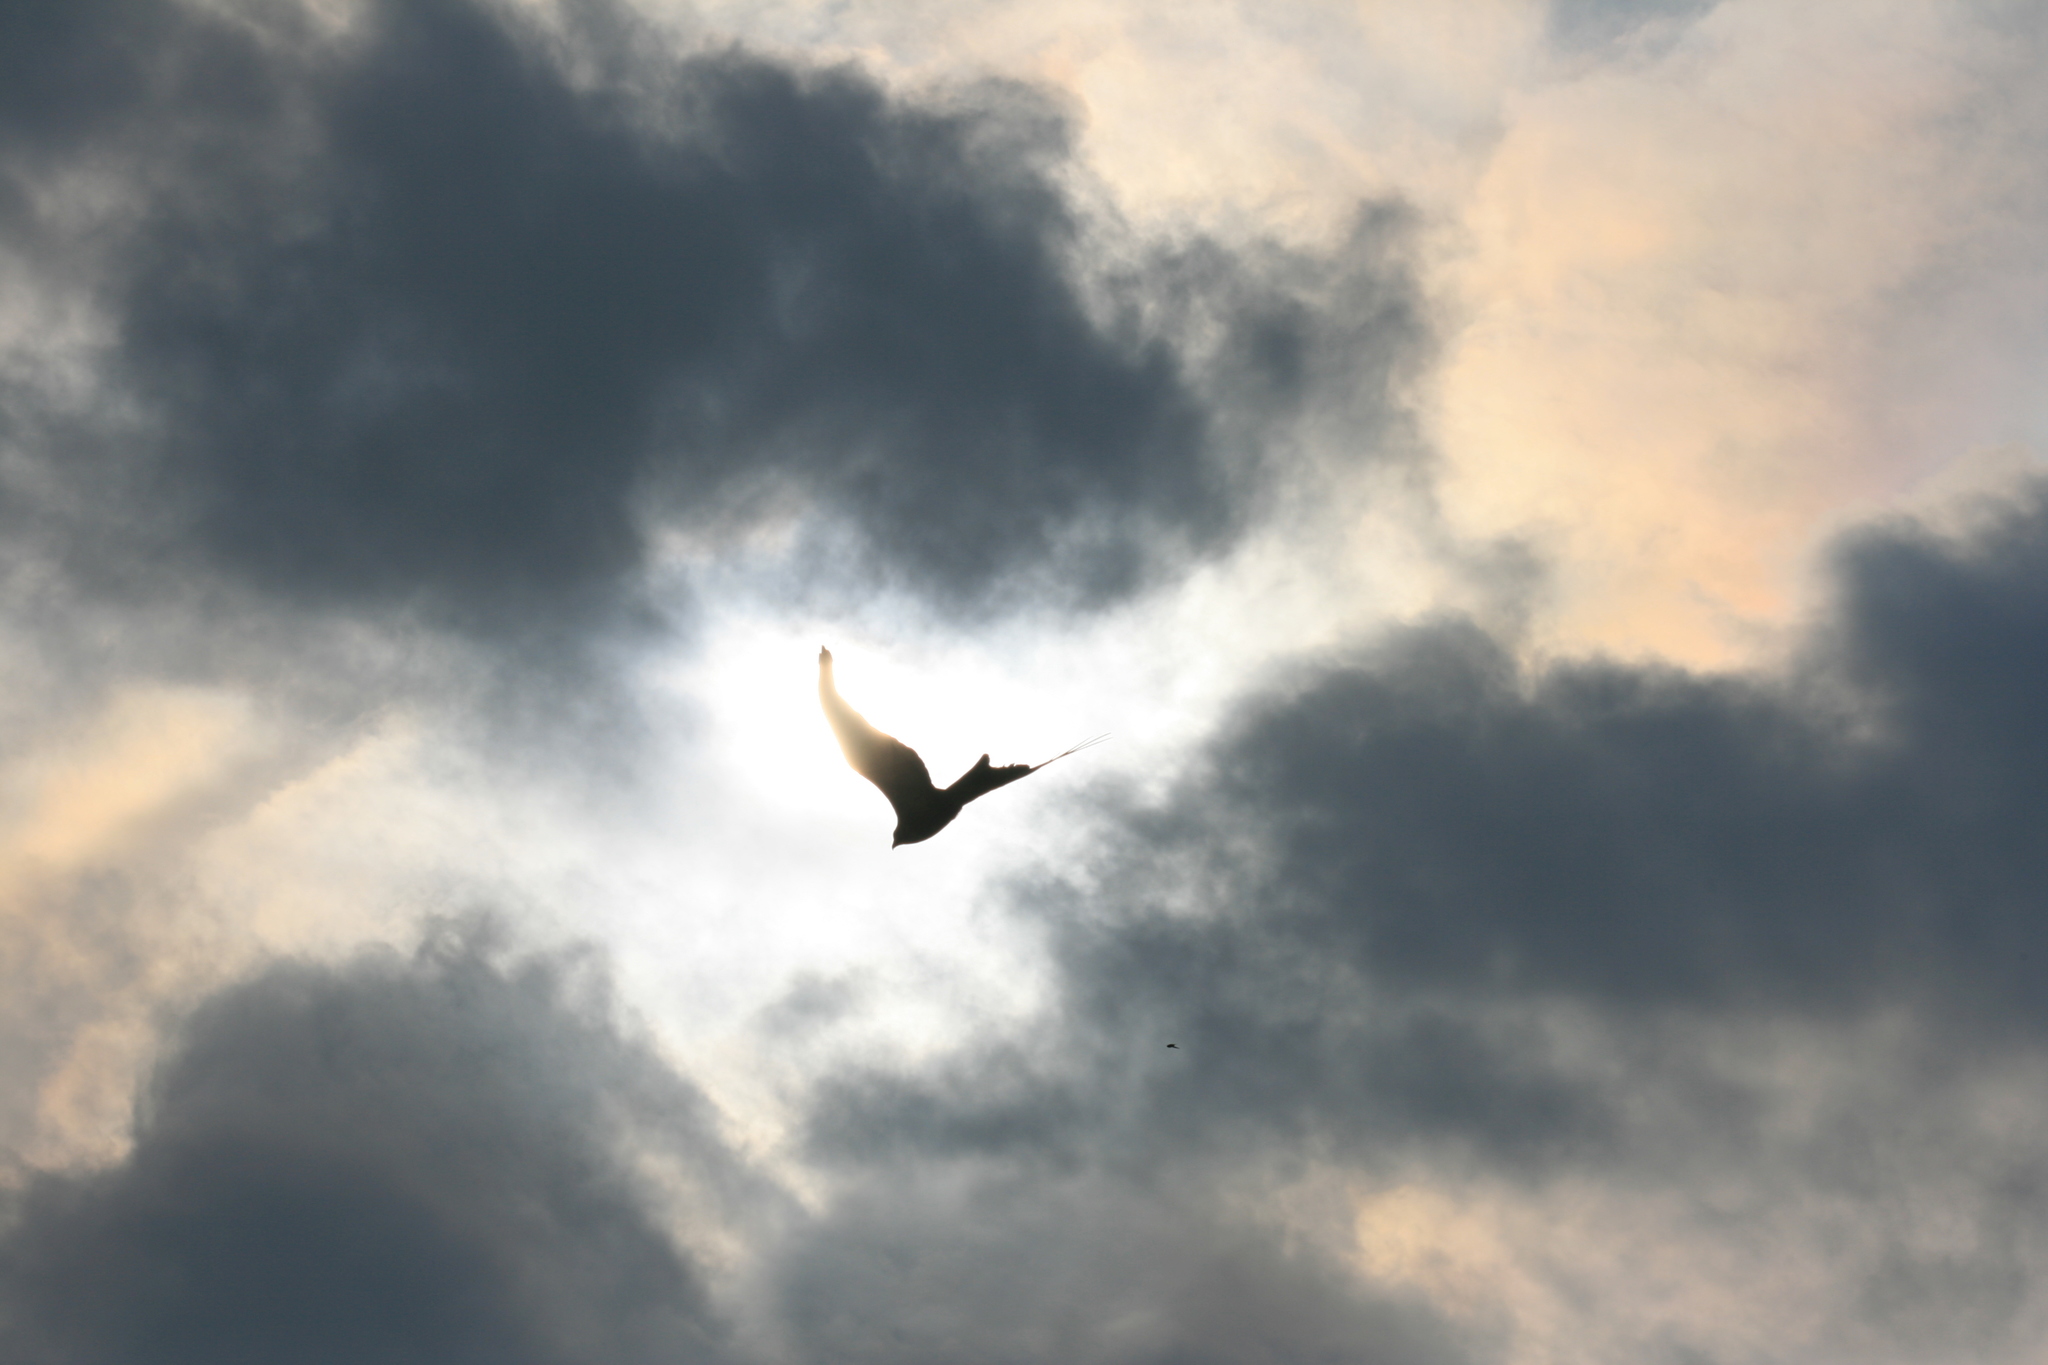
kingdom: Animalia
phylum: Chordata
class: Aves
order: Accipitriformes
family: Accipitridae
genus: Milvus
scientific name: Milvus milvus
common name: Red kite
